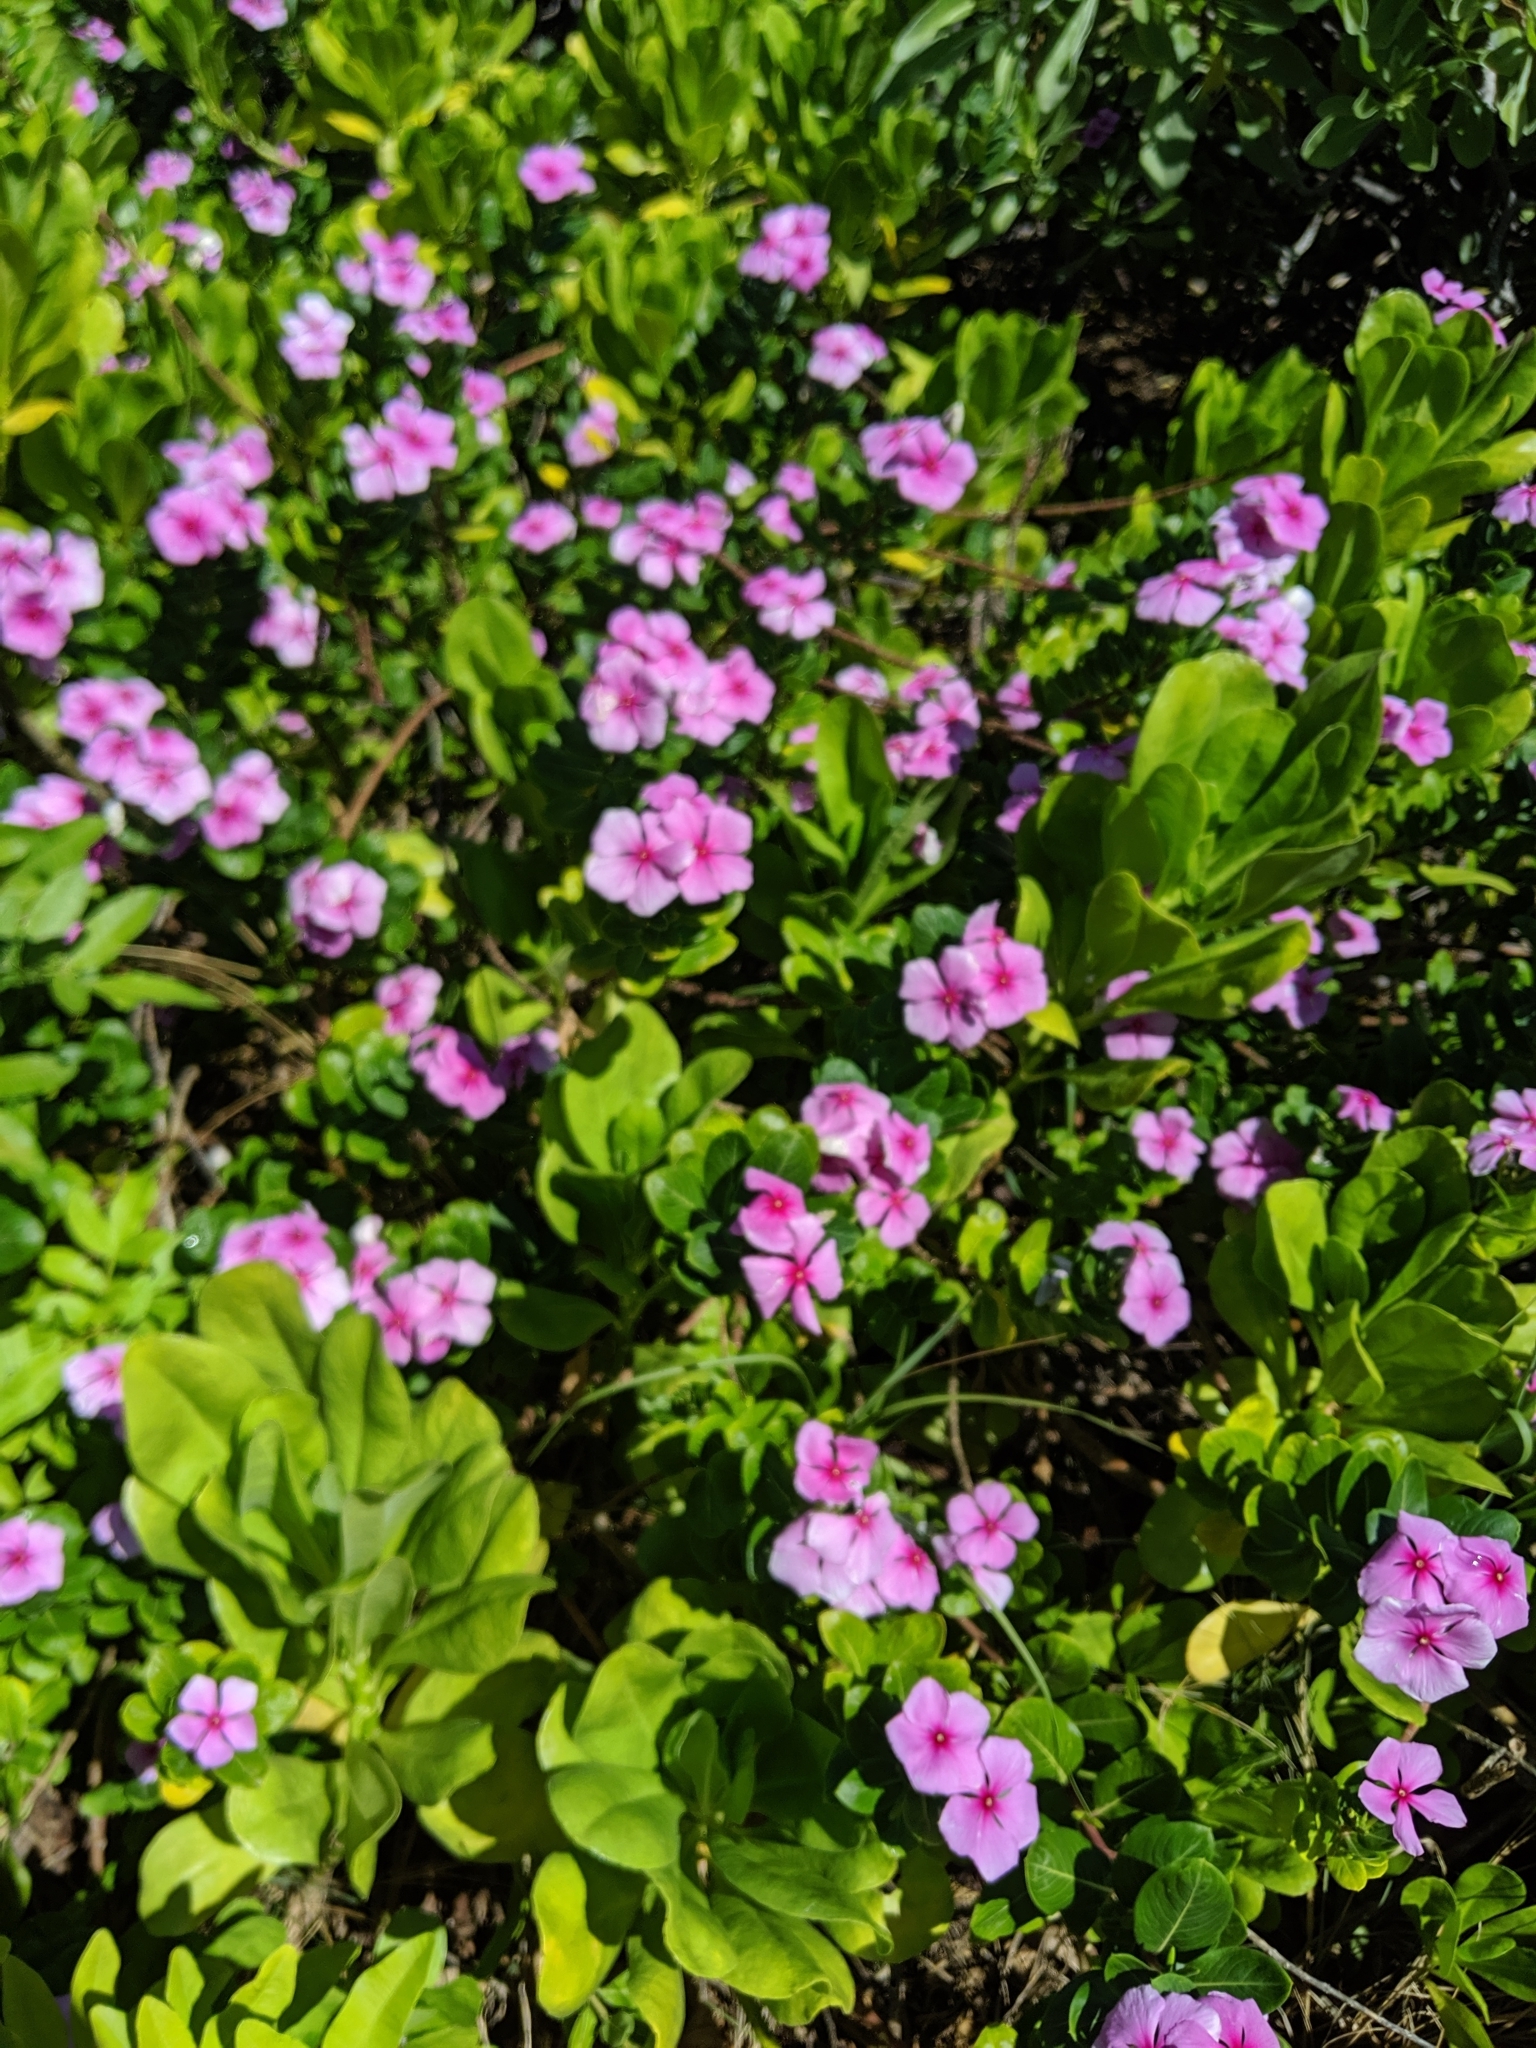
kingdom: Plantae
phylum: Tracheophyta
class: Magnoliopsida
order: Gentianales
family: Apocynaceae
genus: Catharanthus
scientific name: Catharanthus roseus
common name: Madagascar periwinkle
